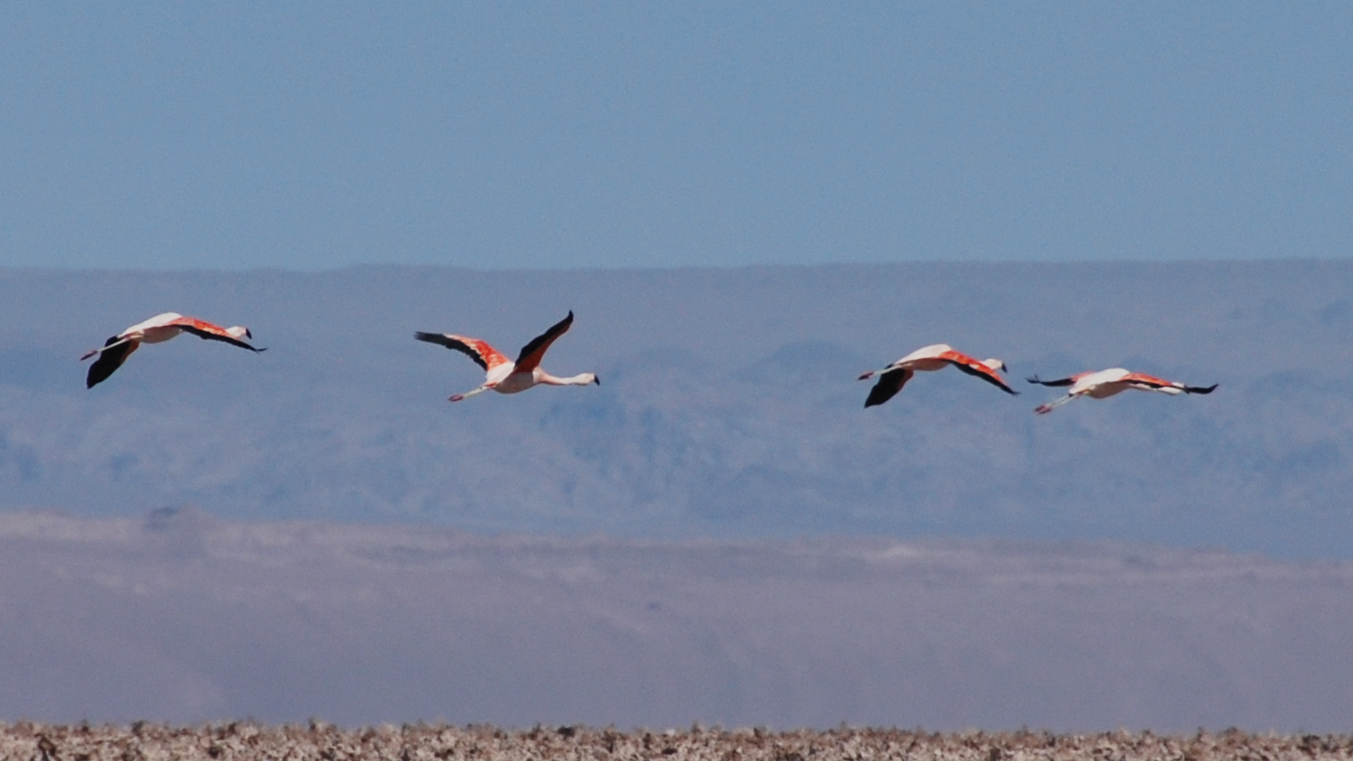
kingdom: Animalia
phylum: Chordata
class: Aves
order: Phoenicopteriformes
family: Phoenicopteridae
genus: Phoenicopterus
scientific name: Phoenicopterus chilensis
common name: Chilean flamingo
